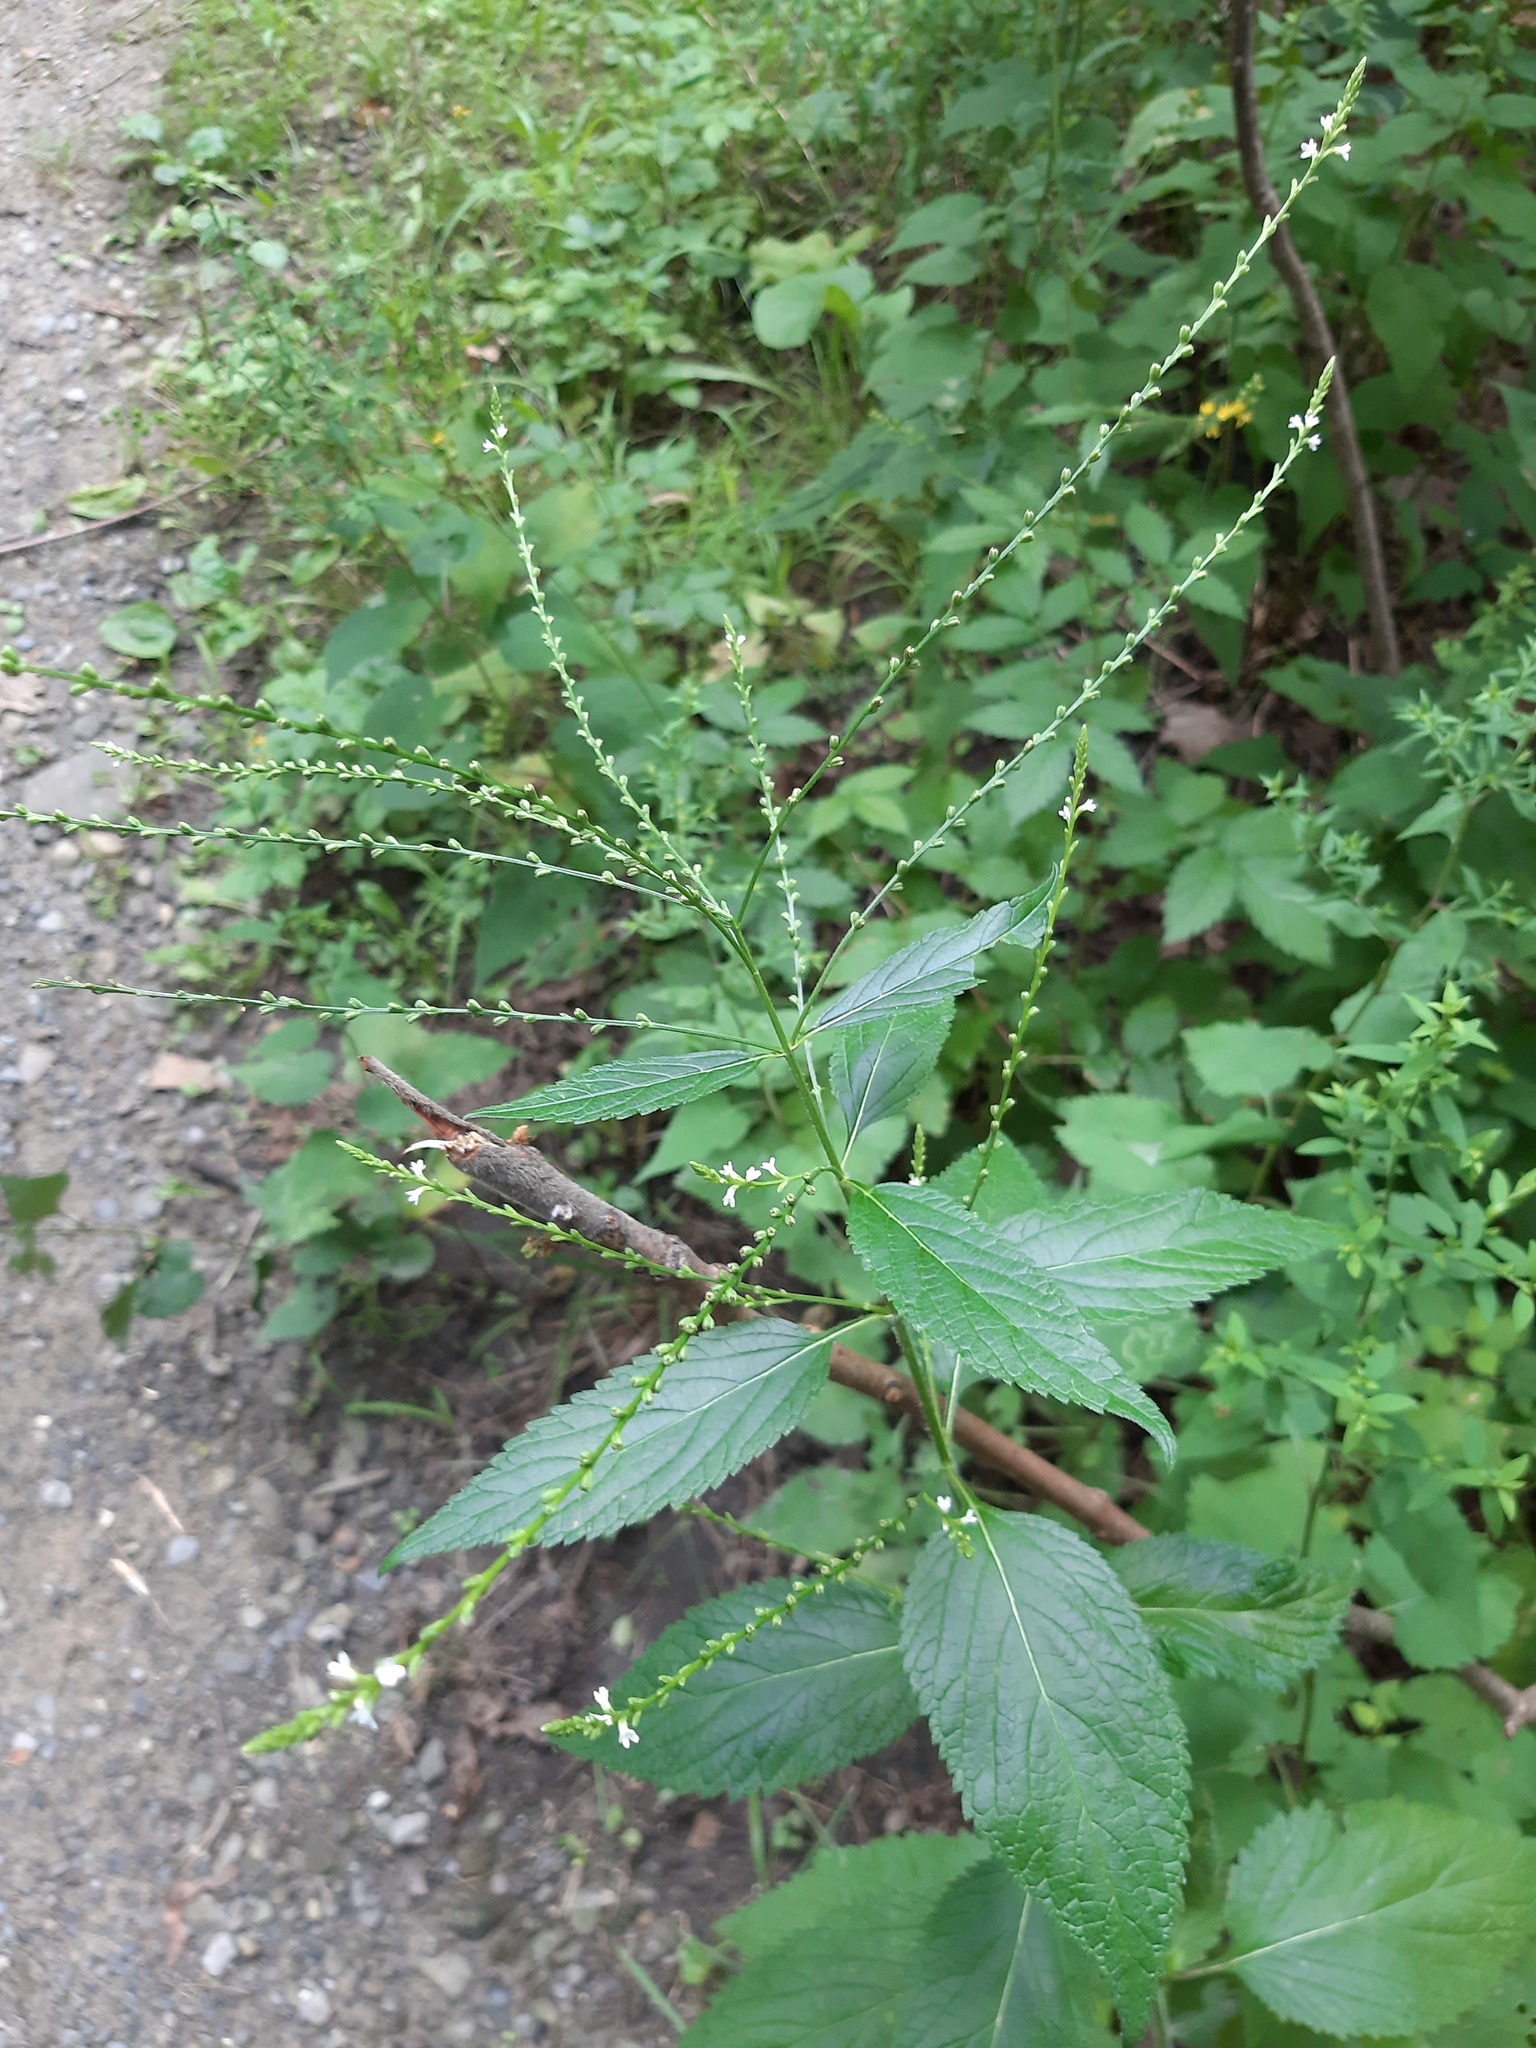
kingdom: Plantae
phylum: Tracheophyta
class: Magnoliopsida
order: Lamiales
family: Verbenaceae
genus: Verbena
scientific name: Verbena urticifolia
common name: Nettle-leaved vervain
